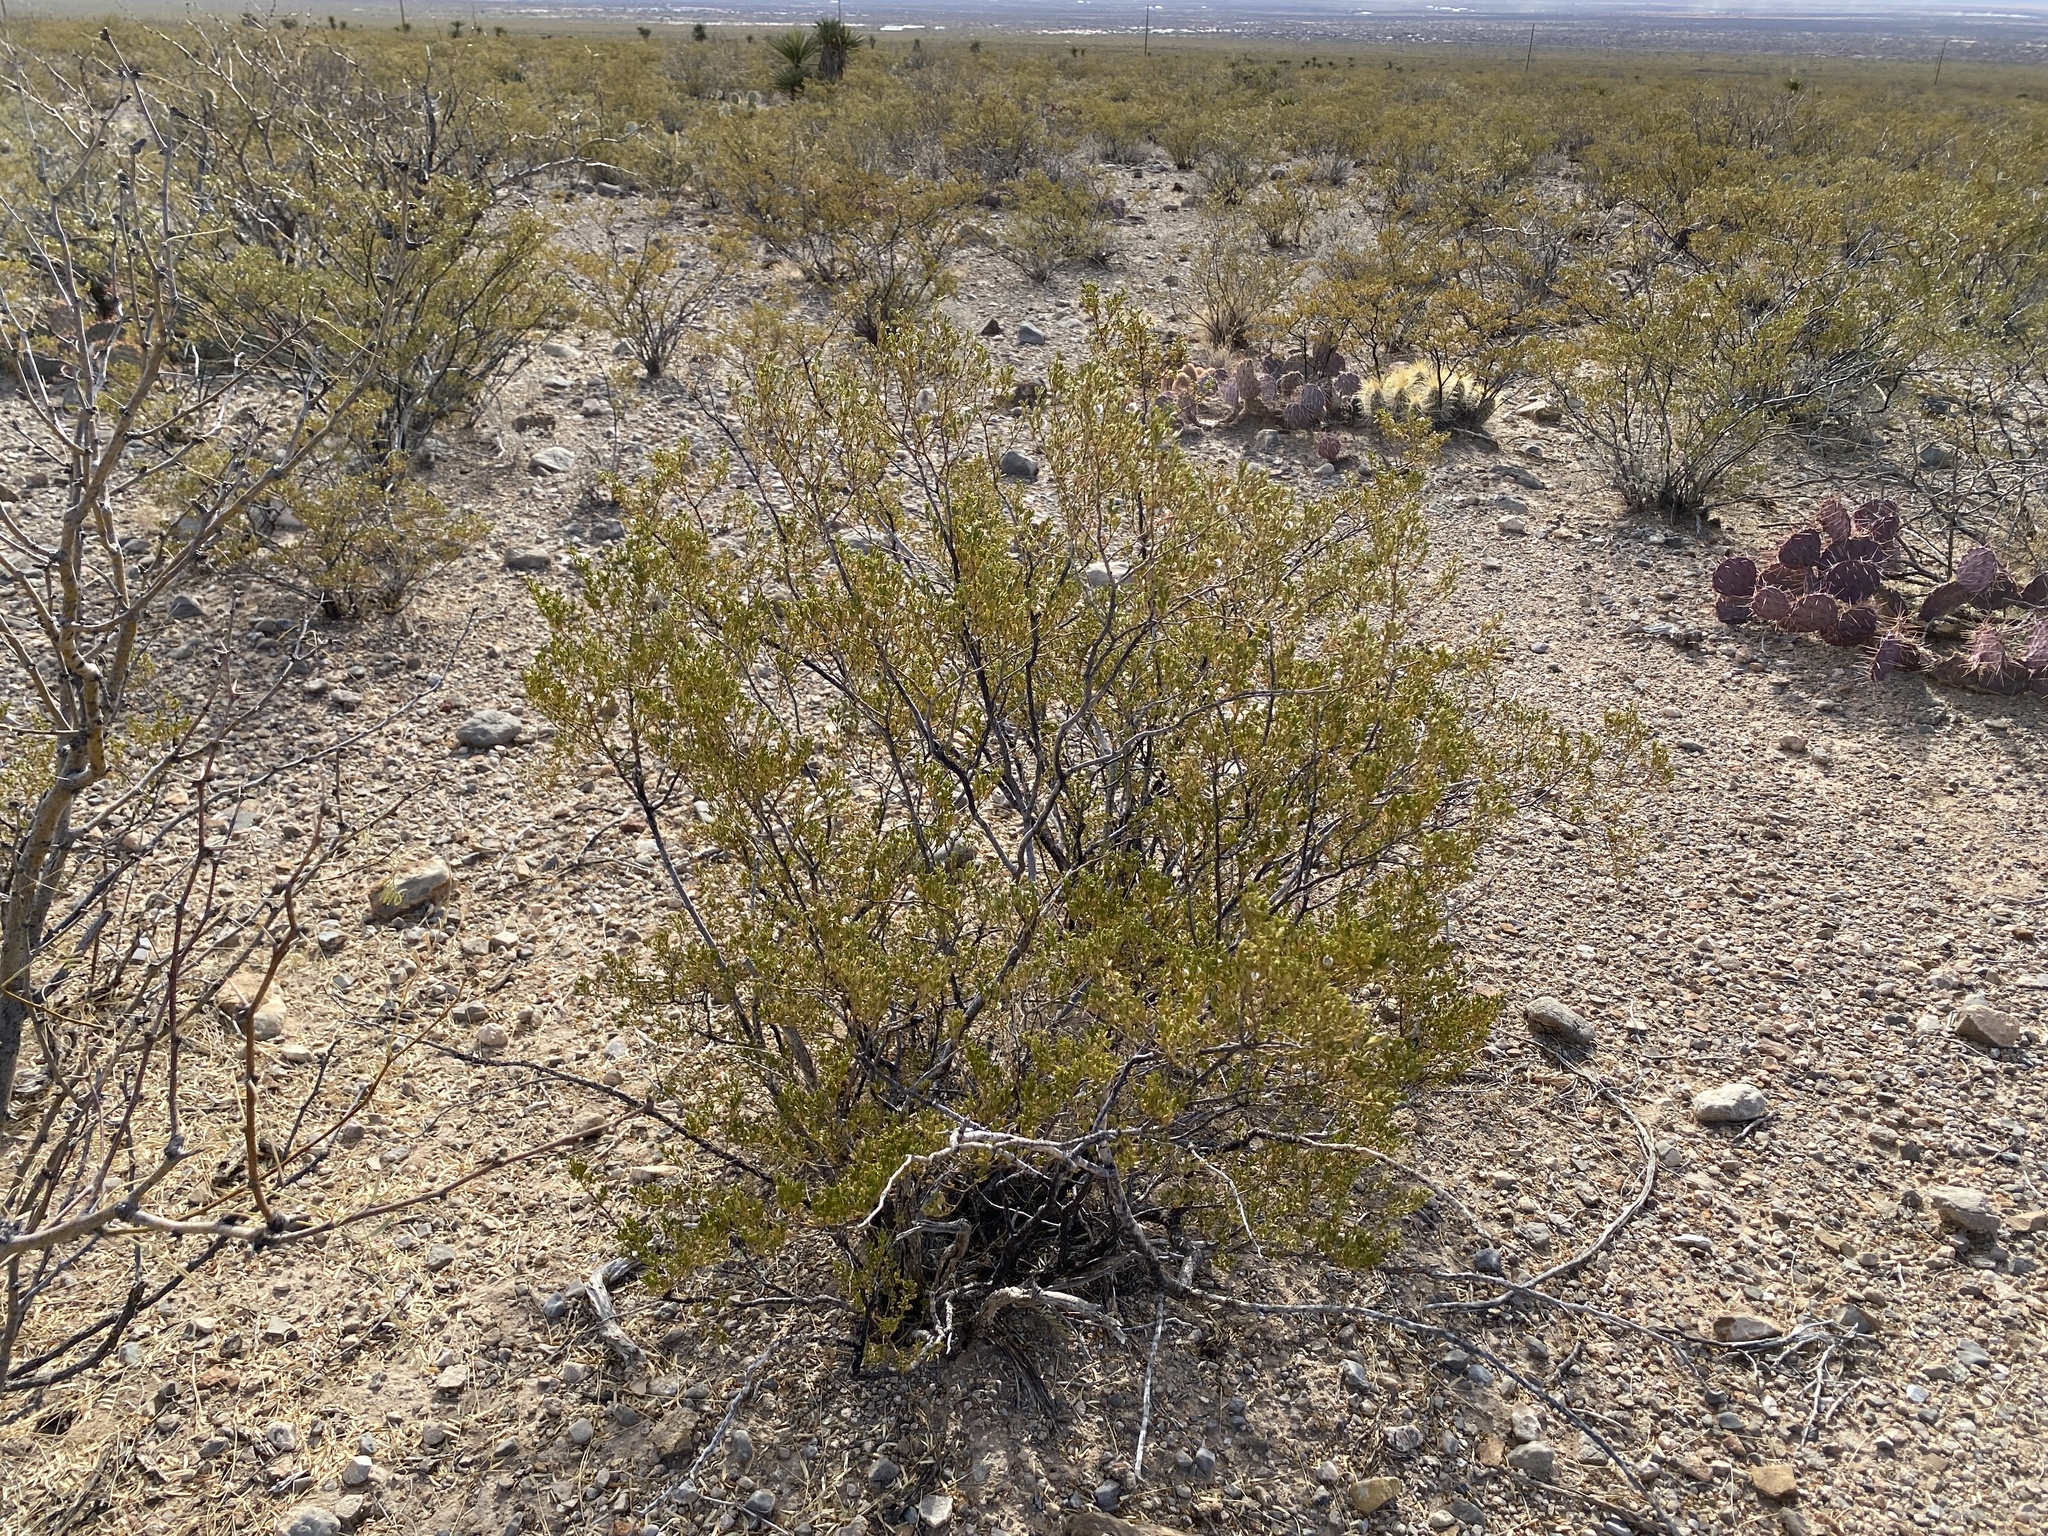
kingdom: Plantae
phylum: Tracheophyta
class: Magnoliopsida
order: Zygophyllales
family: Zygophyllaceae
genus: Larrea
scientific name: Larrea tridentata
